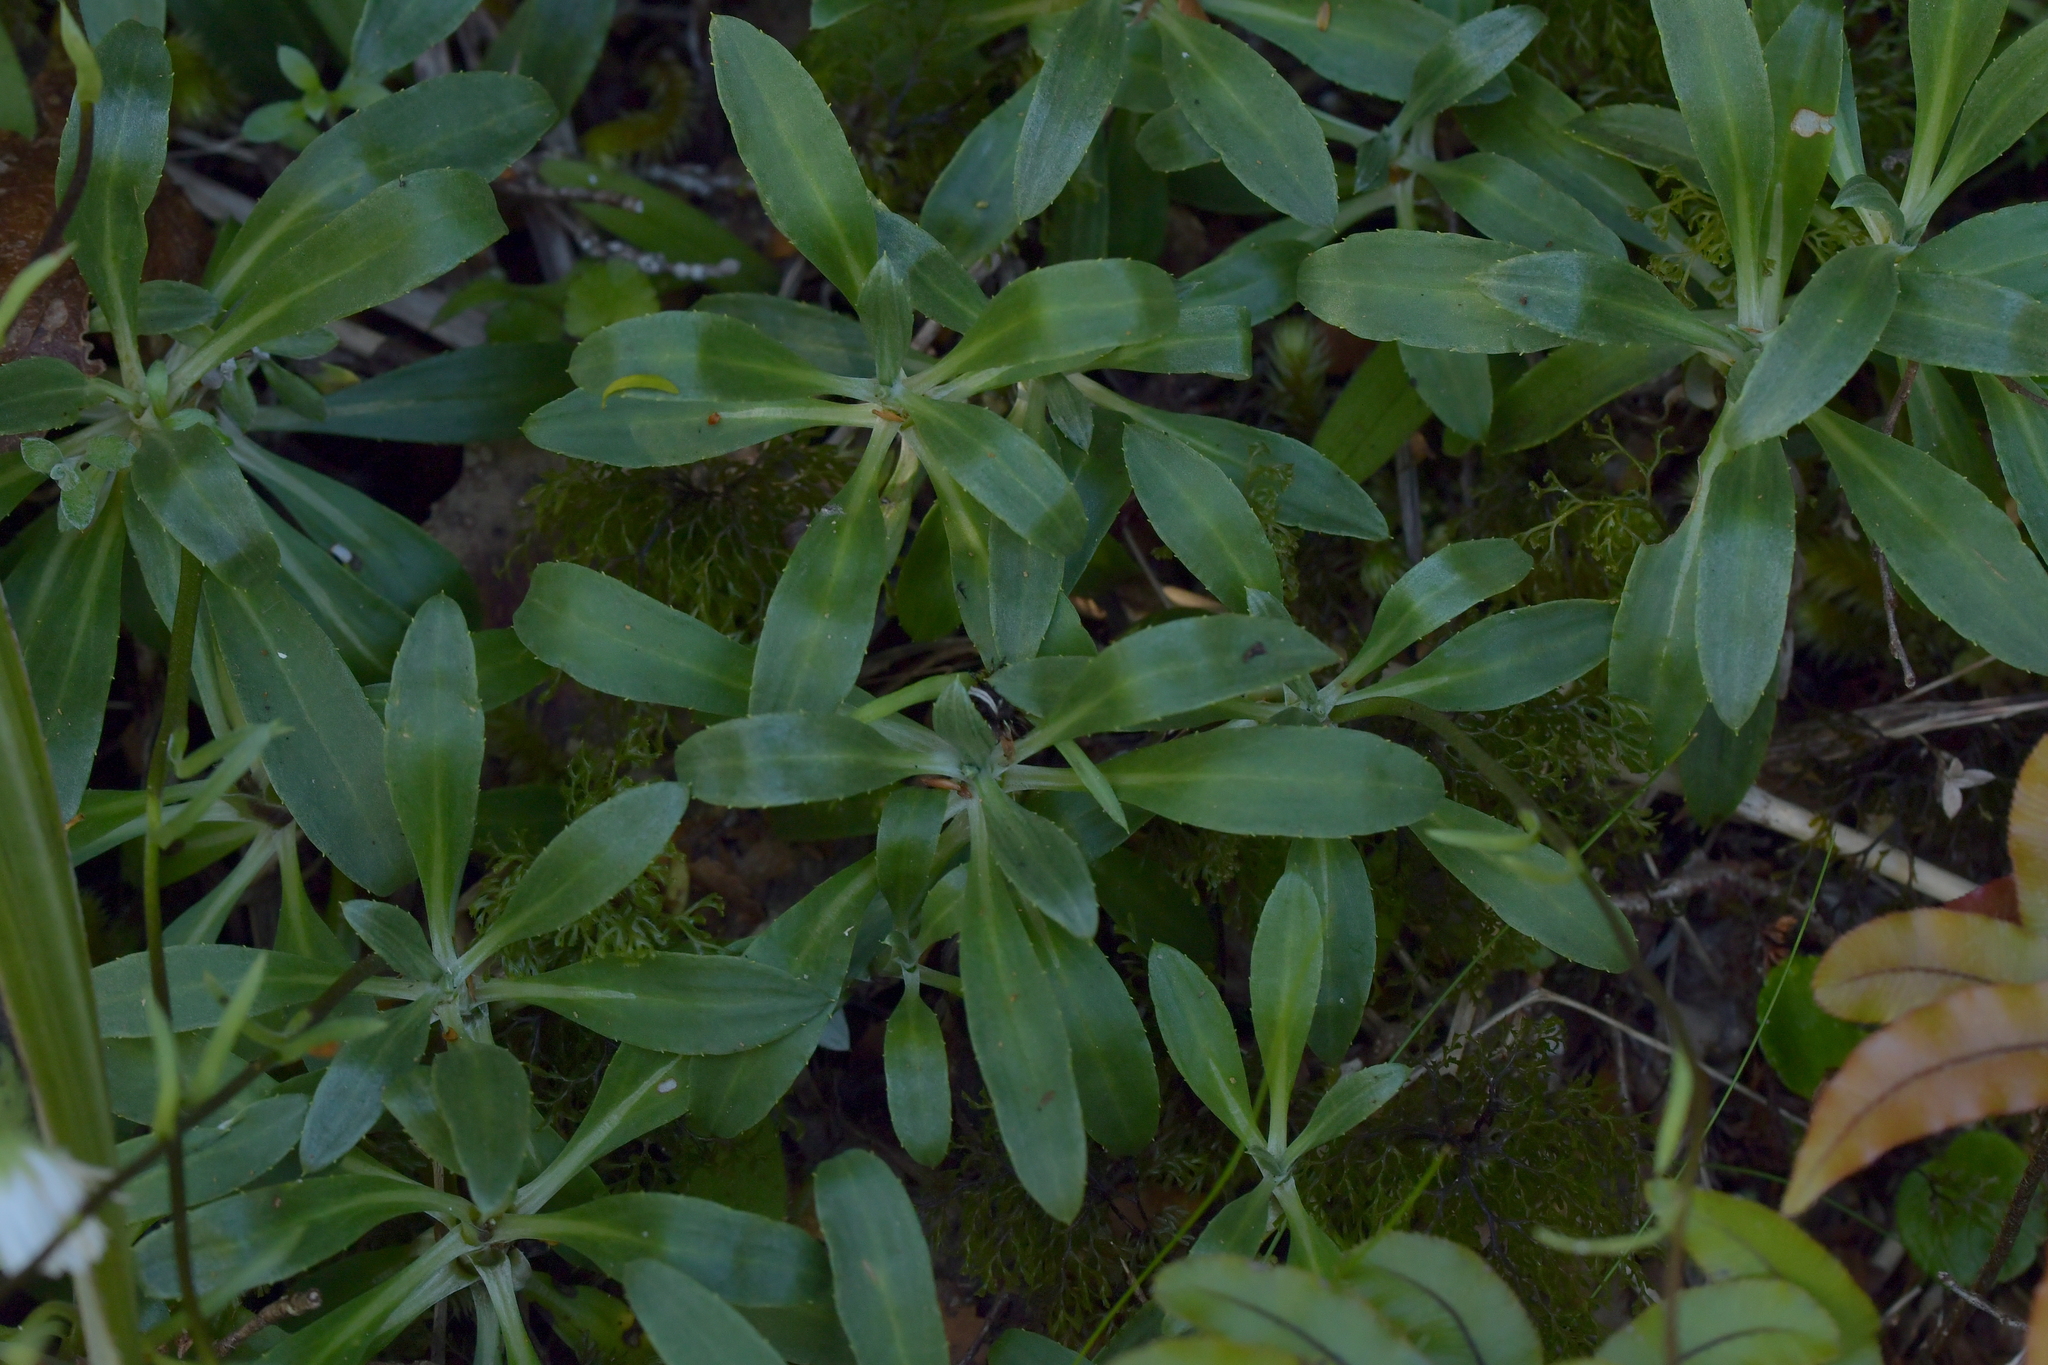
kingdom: Plantae
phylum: Tracheophyta
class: Magnoliopsida
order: Asterales
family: Asteraceae
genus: Celmisia
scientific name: Celmisia durietzii
